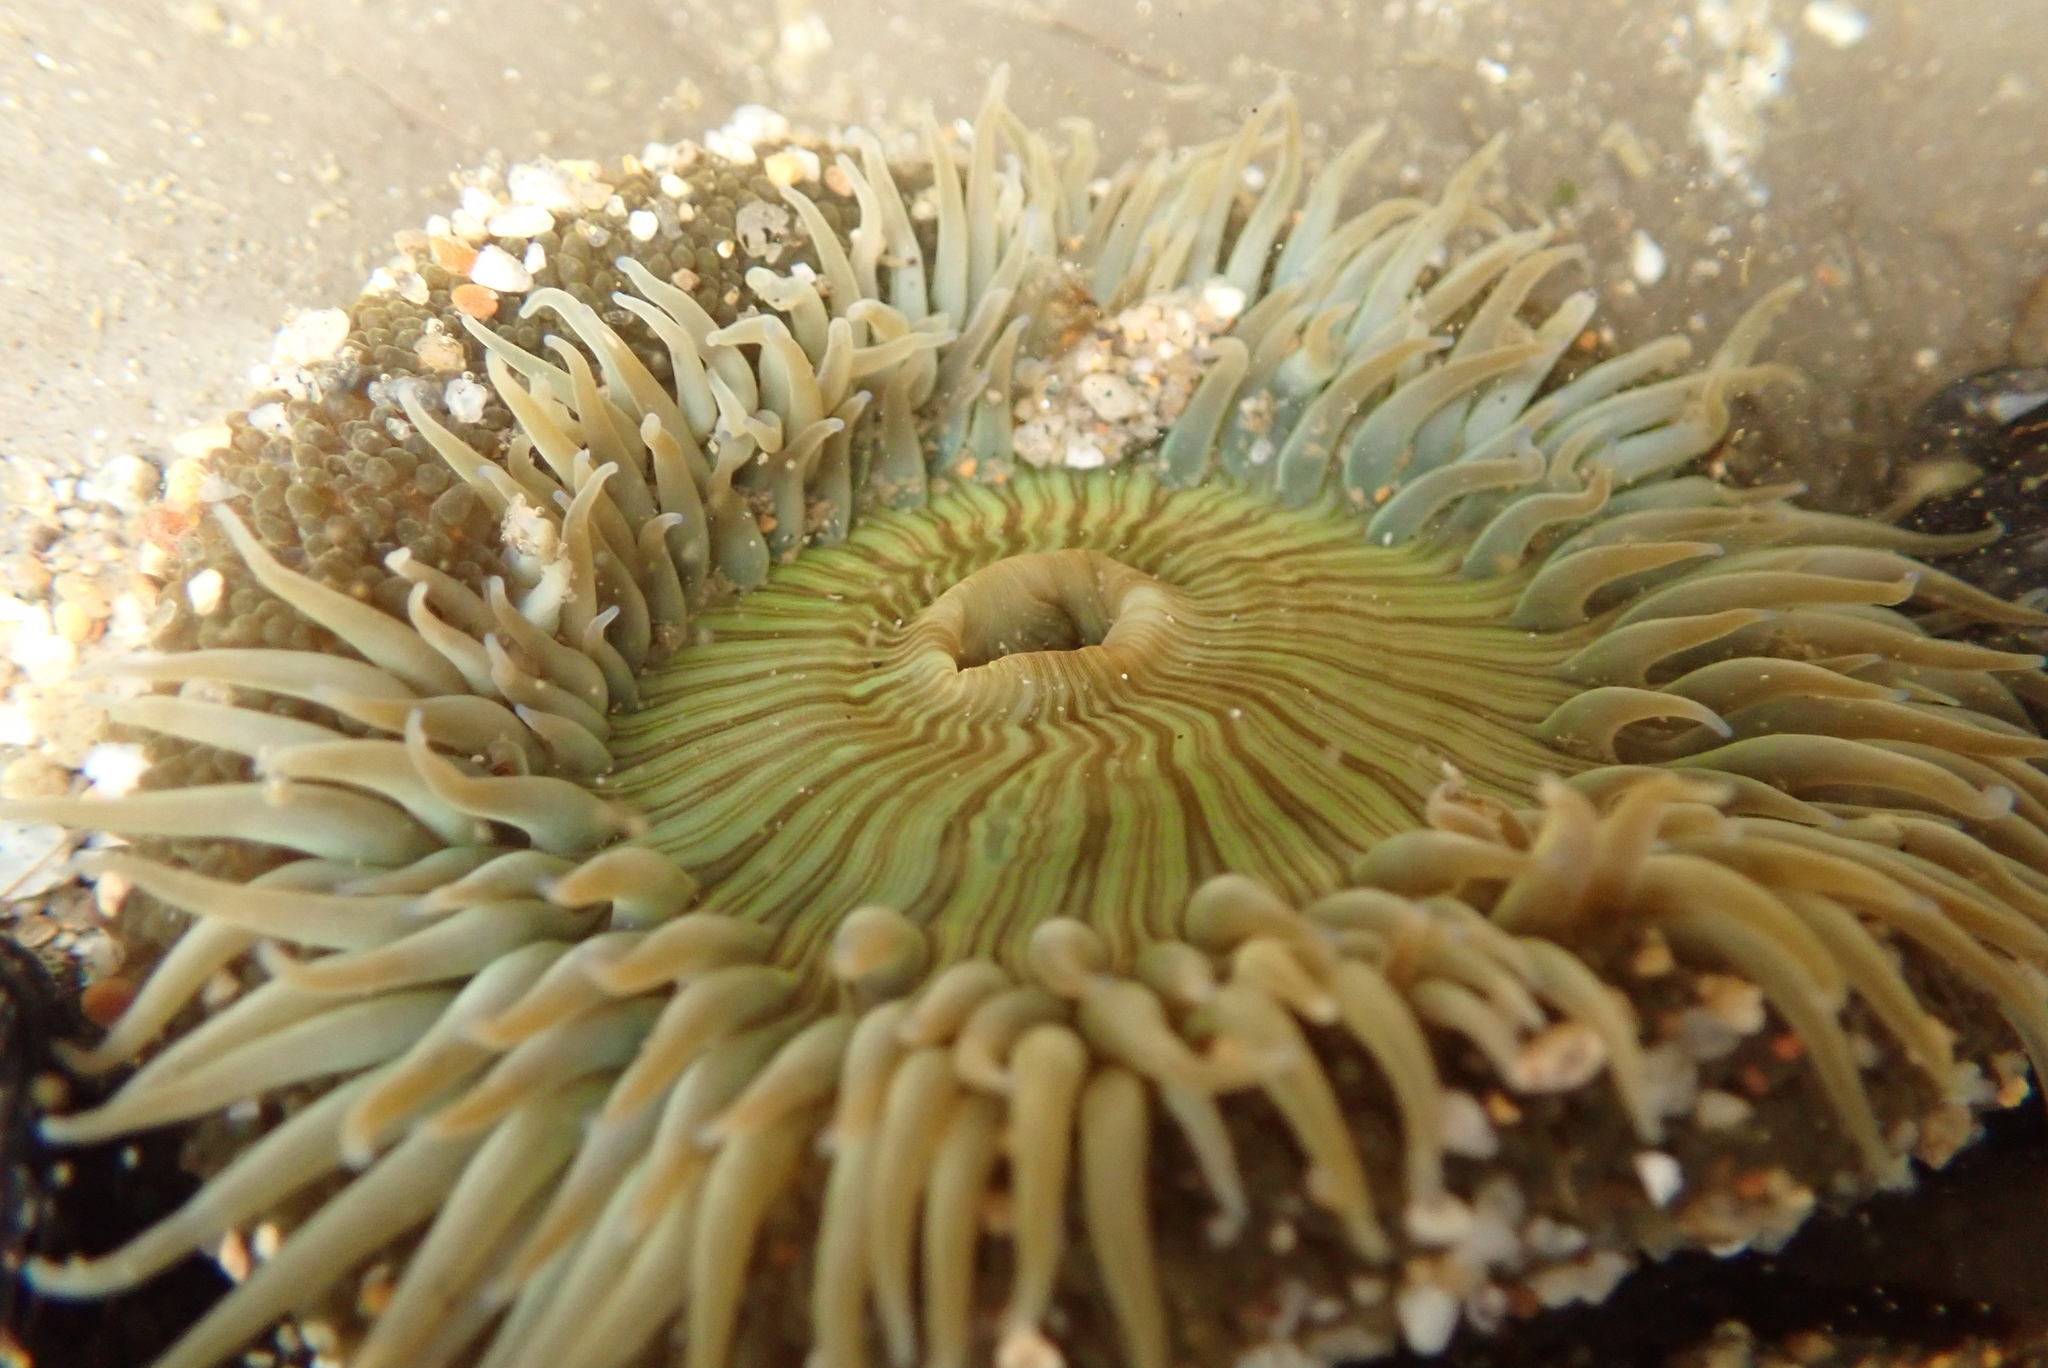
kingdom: Animalia
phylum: Cnidaria
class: Anthozoa
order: Actiniaria
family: Actiniidae
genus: Anthopleura
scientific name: Anthopleura sola
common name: Sun anemone
